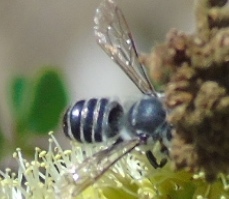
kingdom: Animalia
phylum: Arthropoda
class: Insecta
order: Hymenoptera
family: Megachilidae
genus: Megachile
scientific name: Megachile
